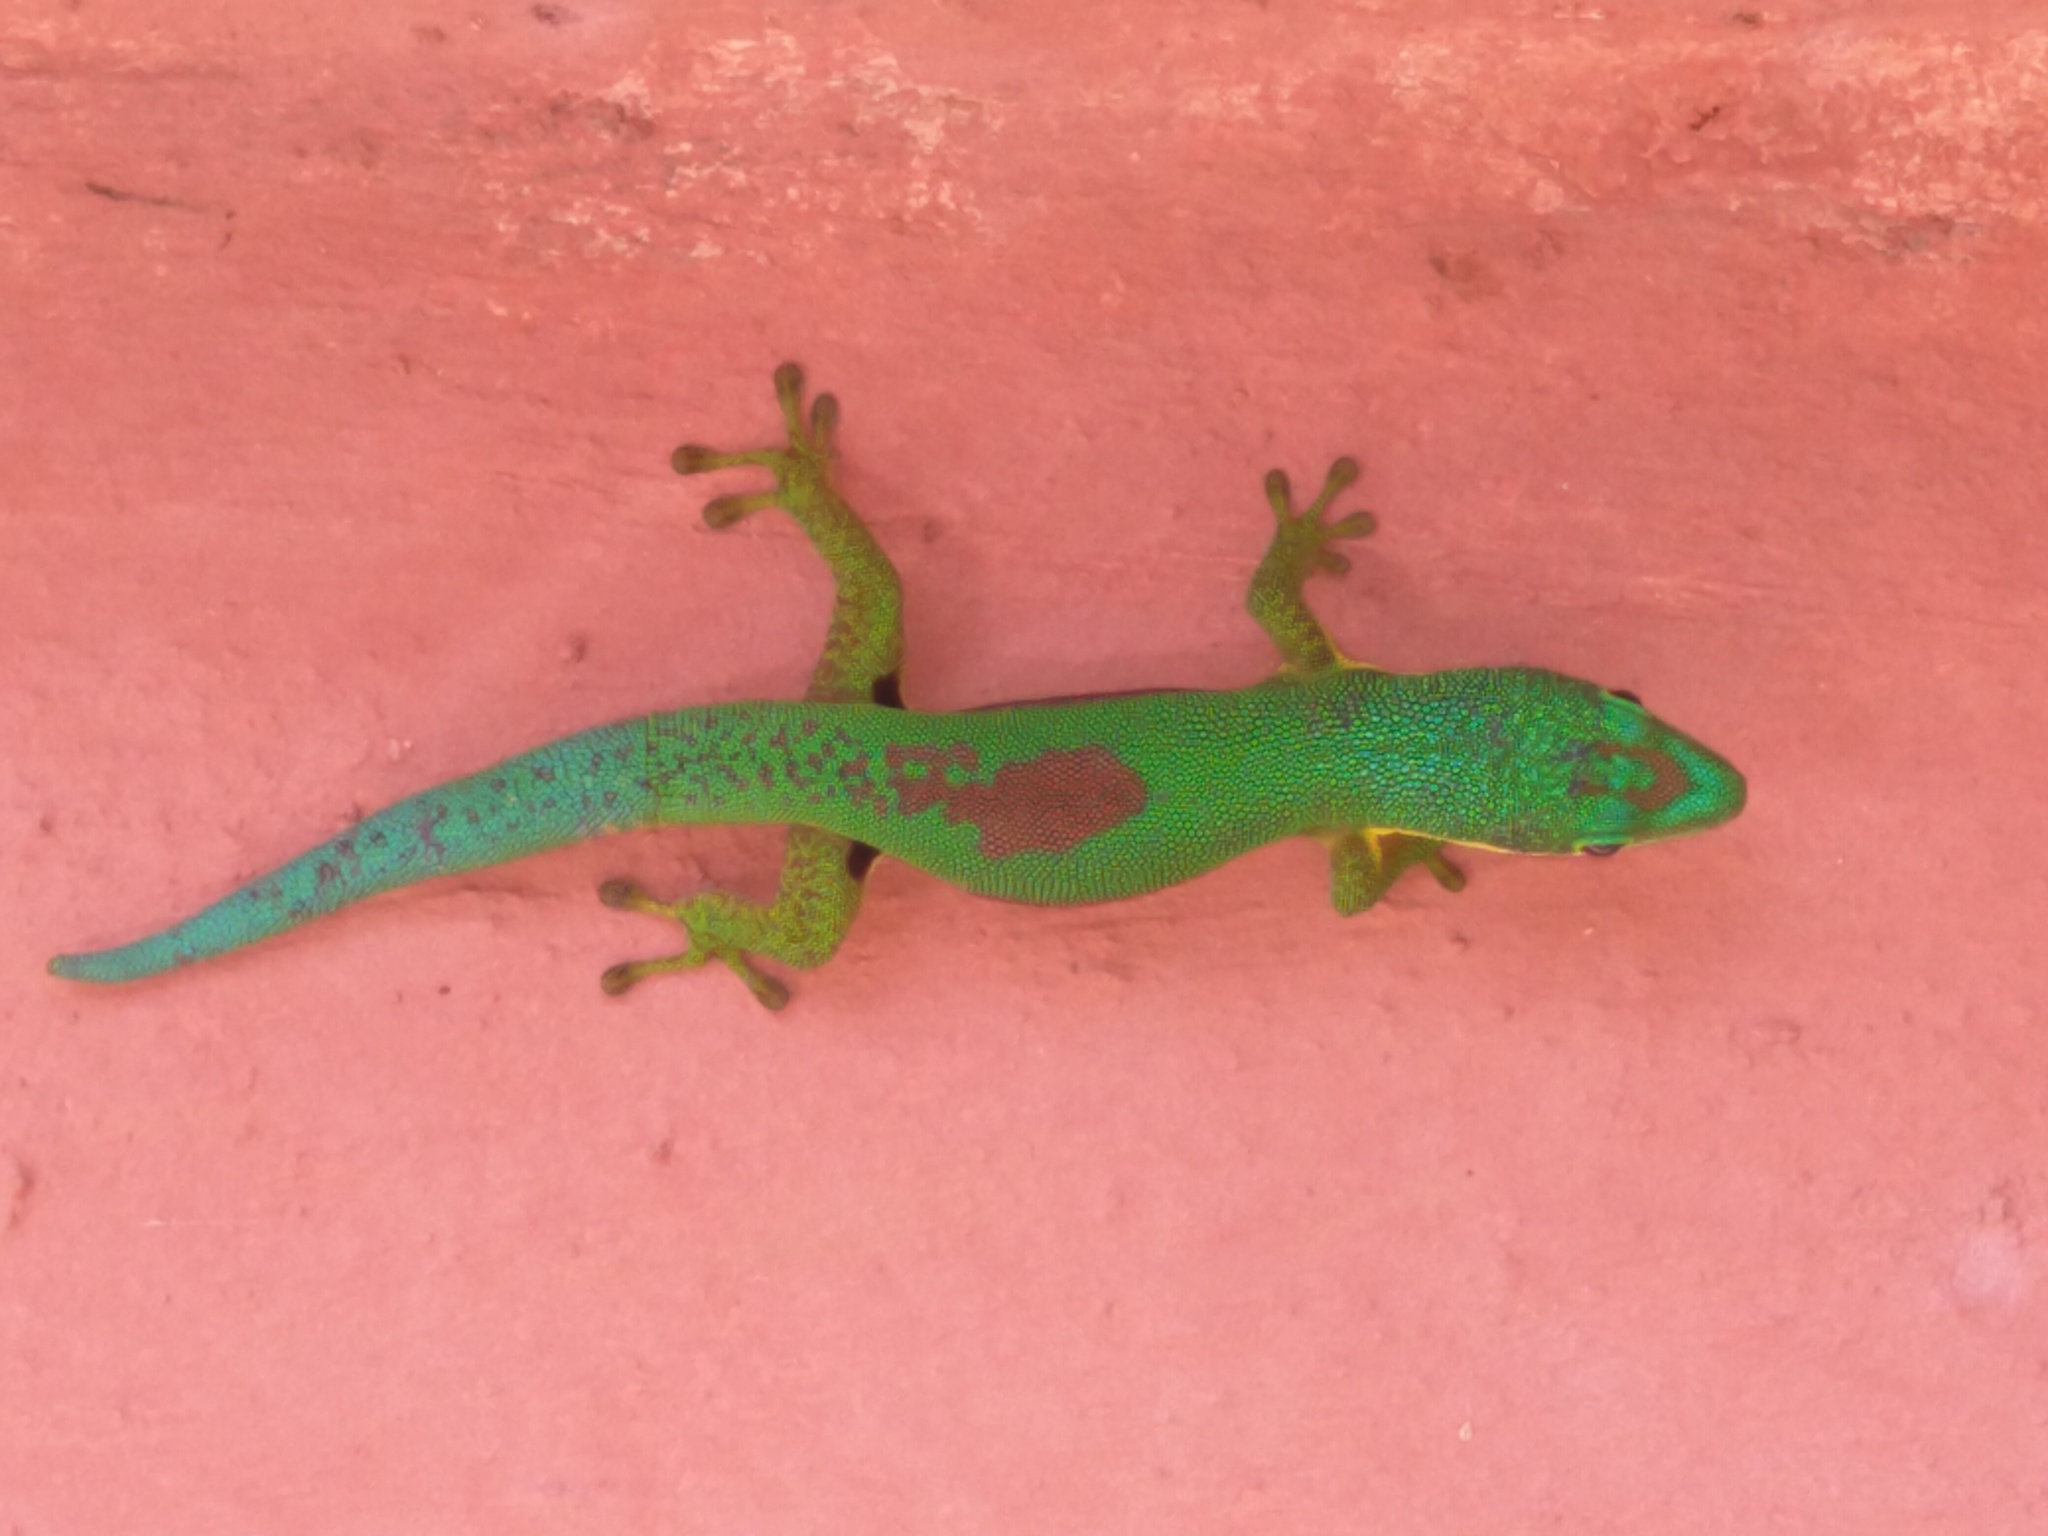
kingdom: Animalia
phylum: Chordata
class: Squamata
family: Gekkonidae
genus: Phelsuma
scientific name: Phelsuma lineata
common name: Lined day gecko
